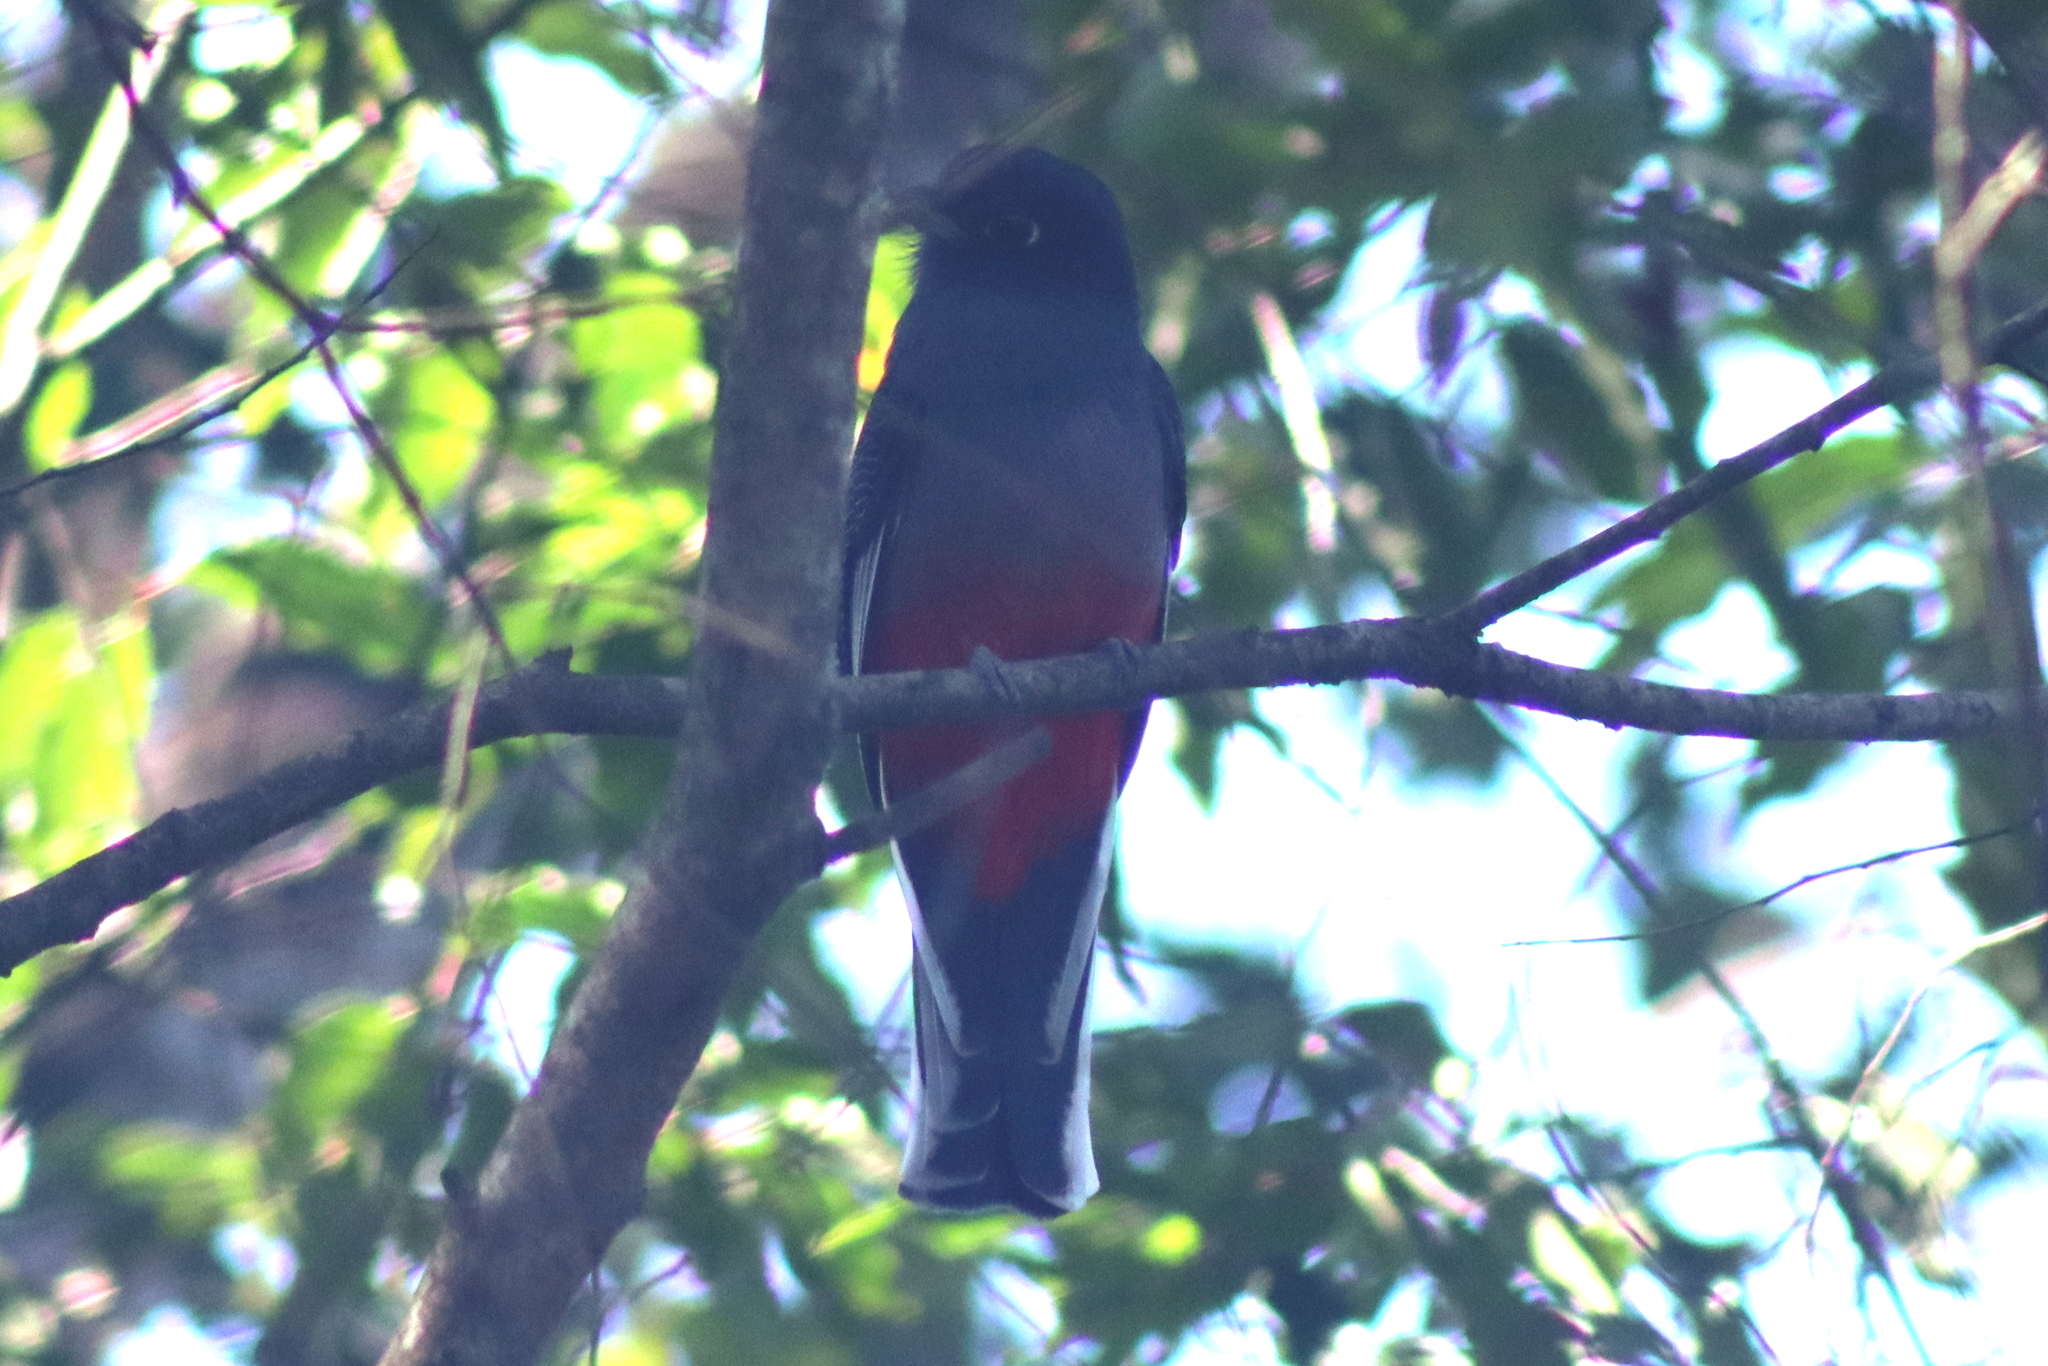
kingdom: Animalia
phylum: Chordata
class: Aves
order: Trogoniformes
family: Trogonidae
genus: Trogon
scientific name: Trogon surrucura
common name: Surucua trogon
